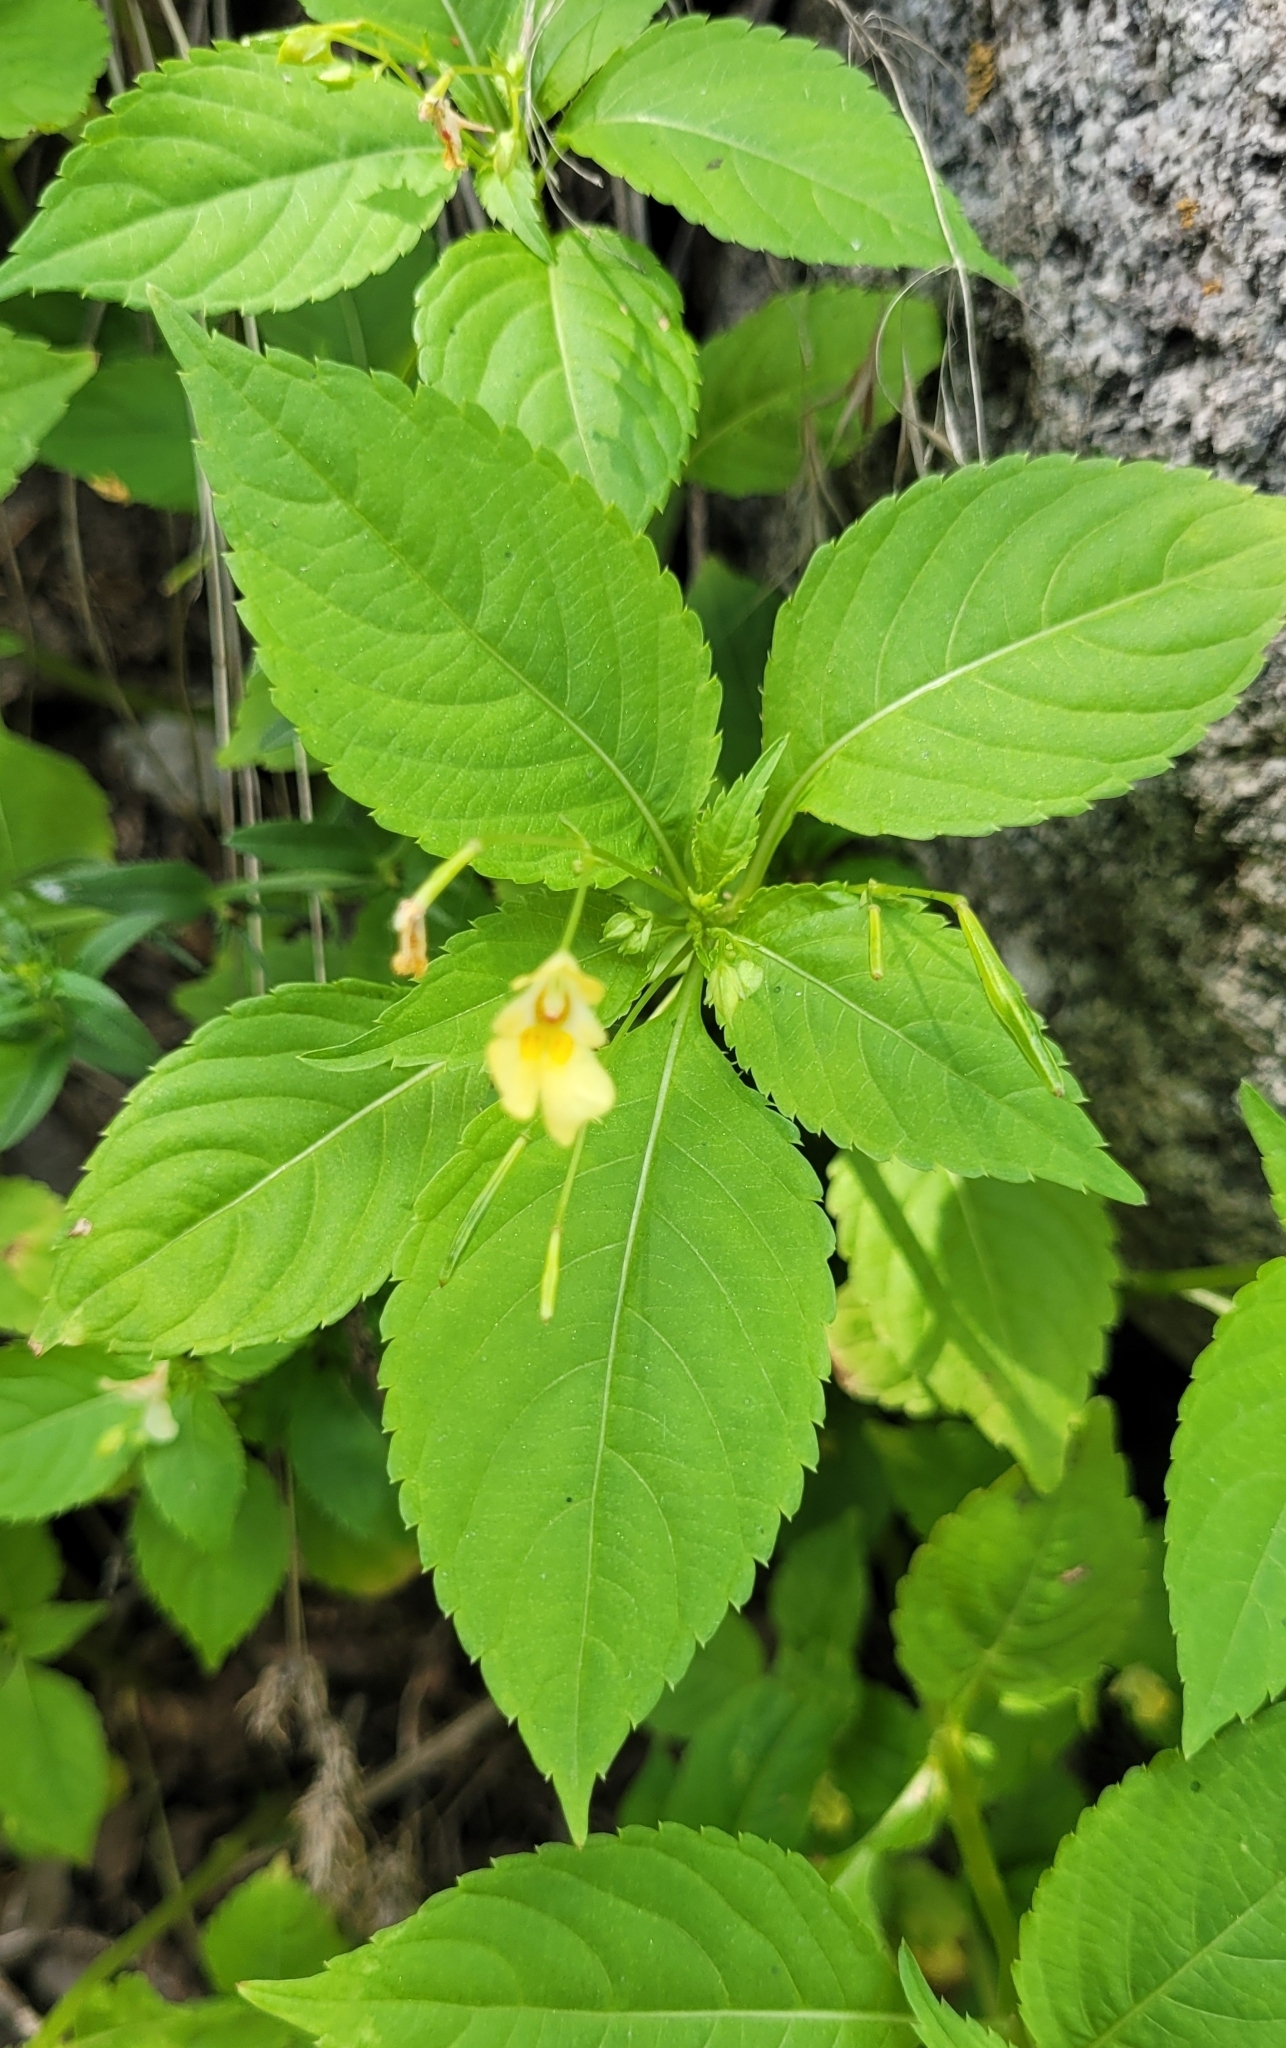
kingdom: Plantae
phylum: Tracheophyta
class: Magnoliopsida
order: Ericales
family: Balsaminaceae
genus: Impatiens
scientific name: Impatiens parviflora
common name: Small balsam
